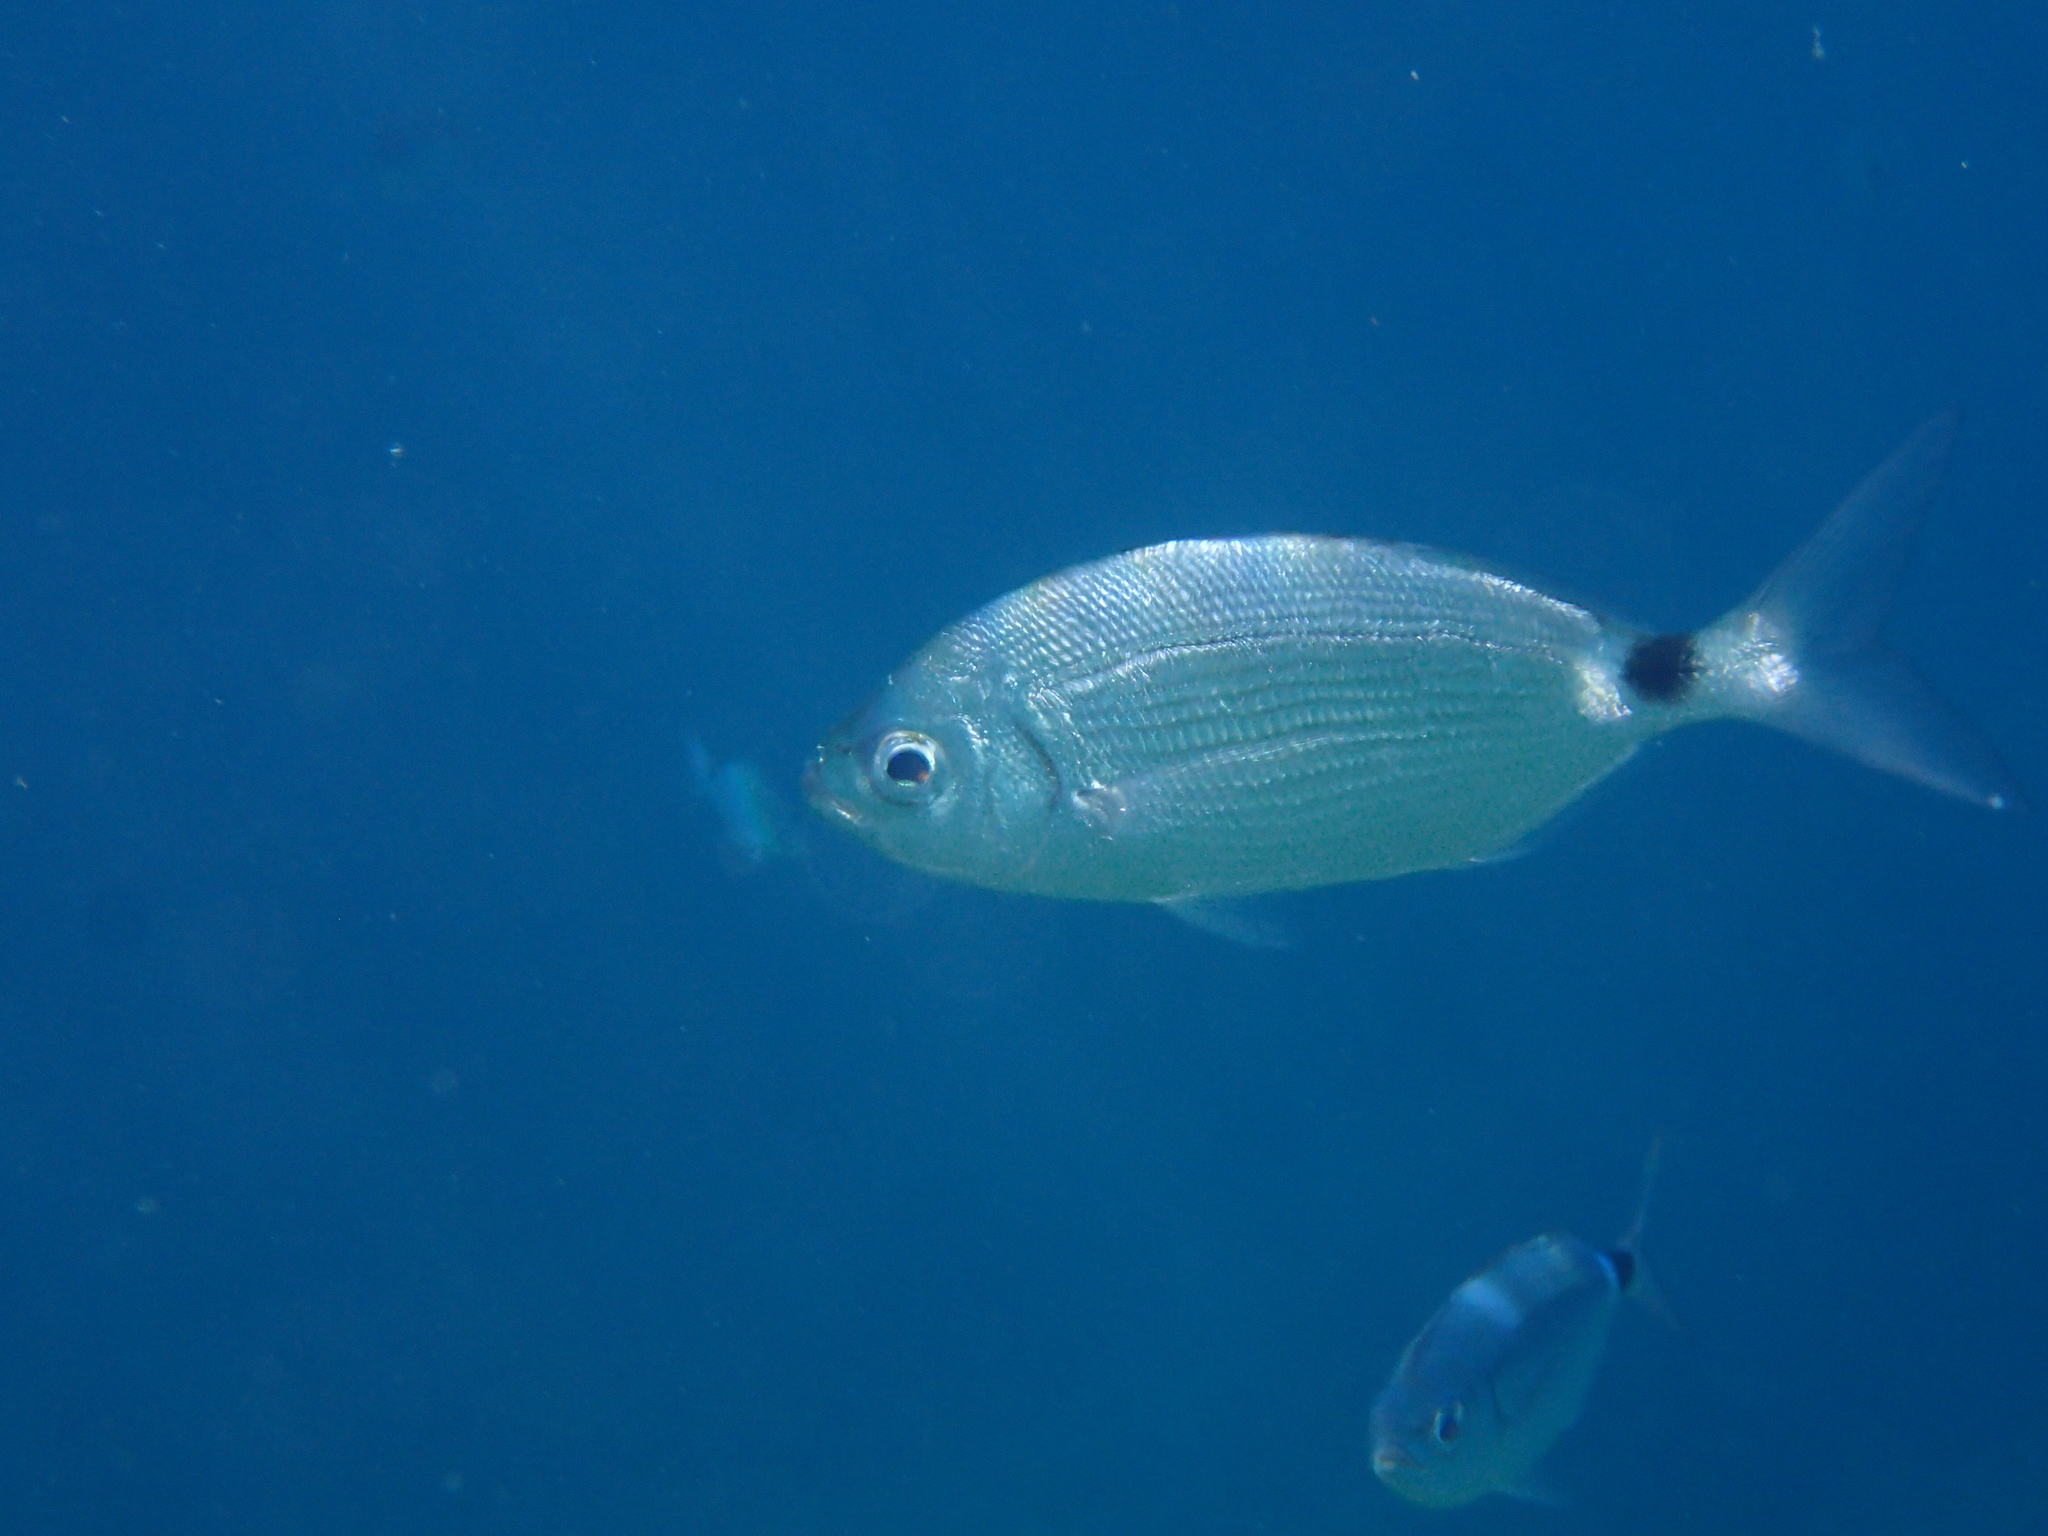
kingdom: Animalia
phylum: Chordata
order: Perciformes
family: Sparidae
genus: Oblada
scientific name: Oblada melanura
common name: Saddled seabream
